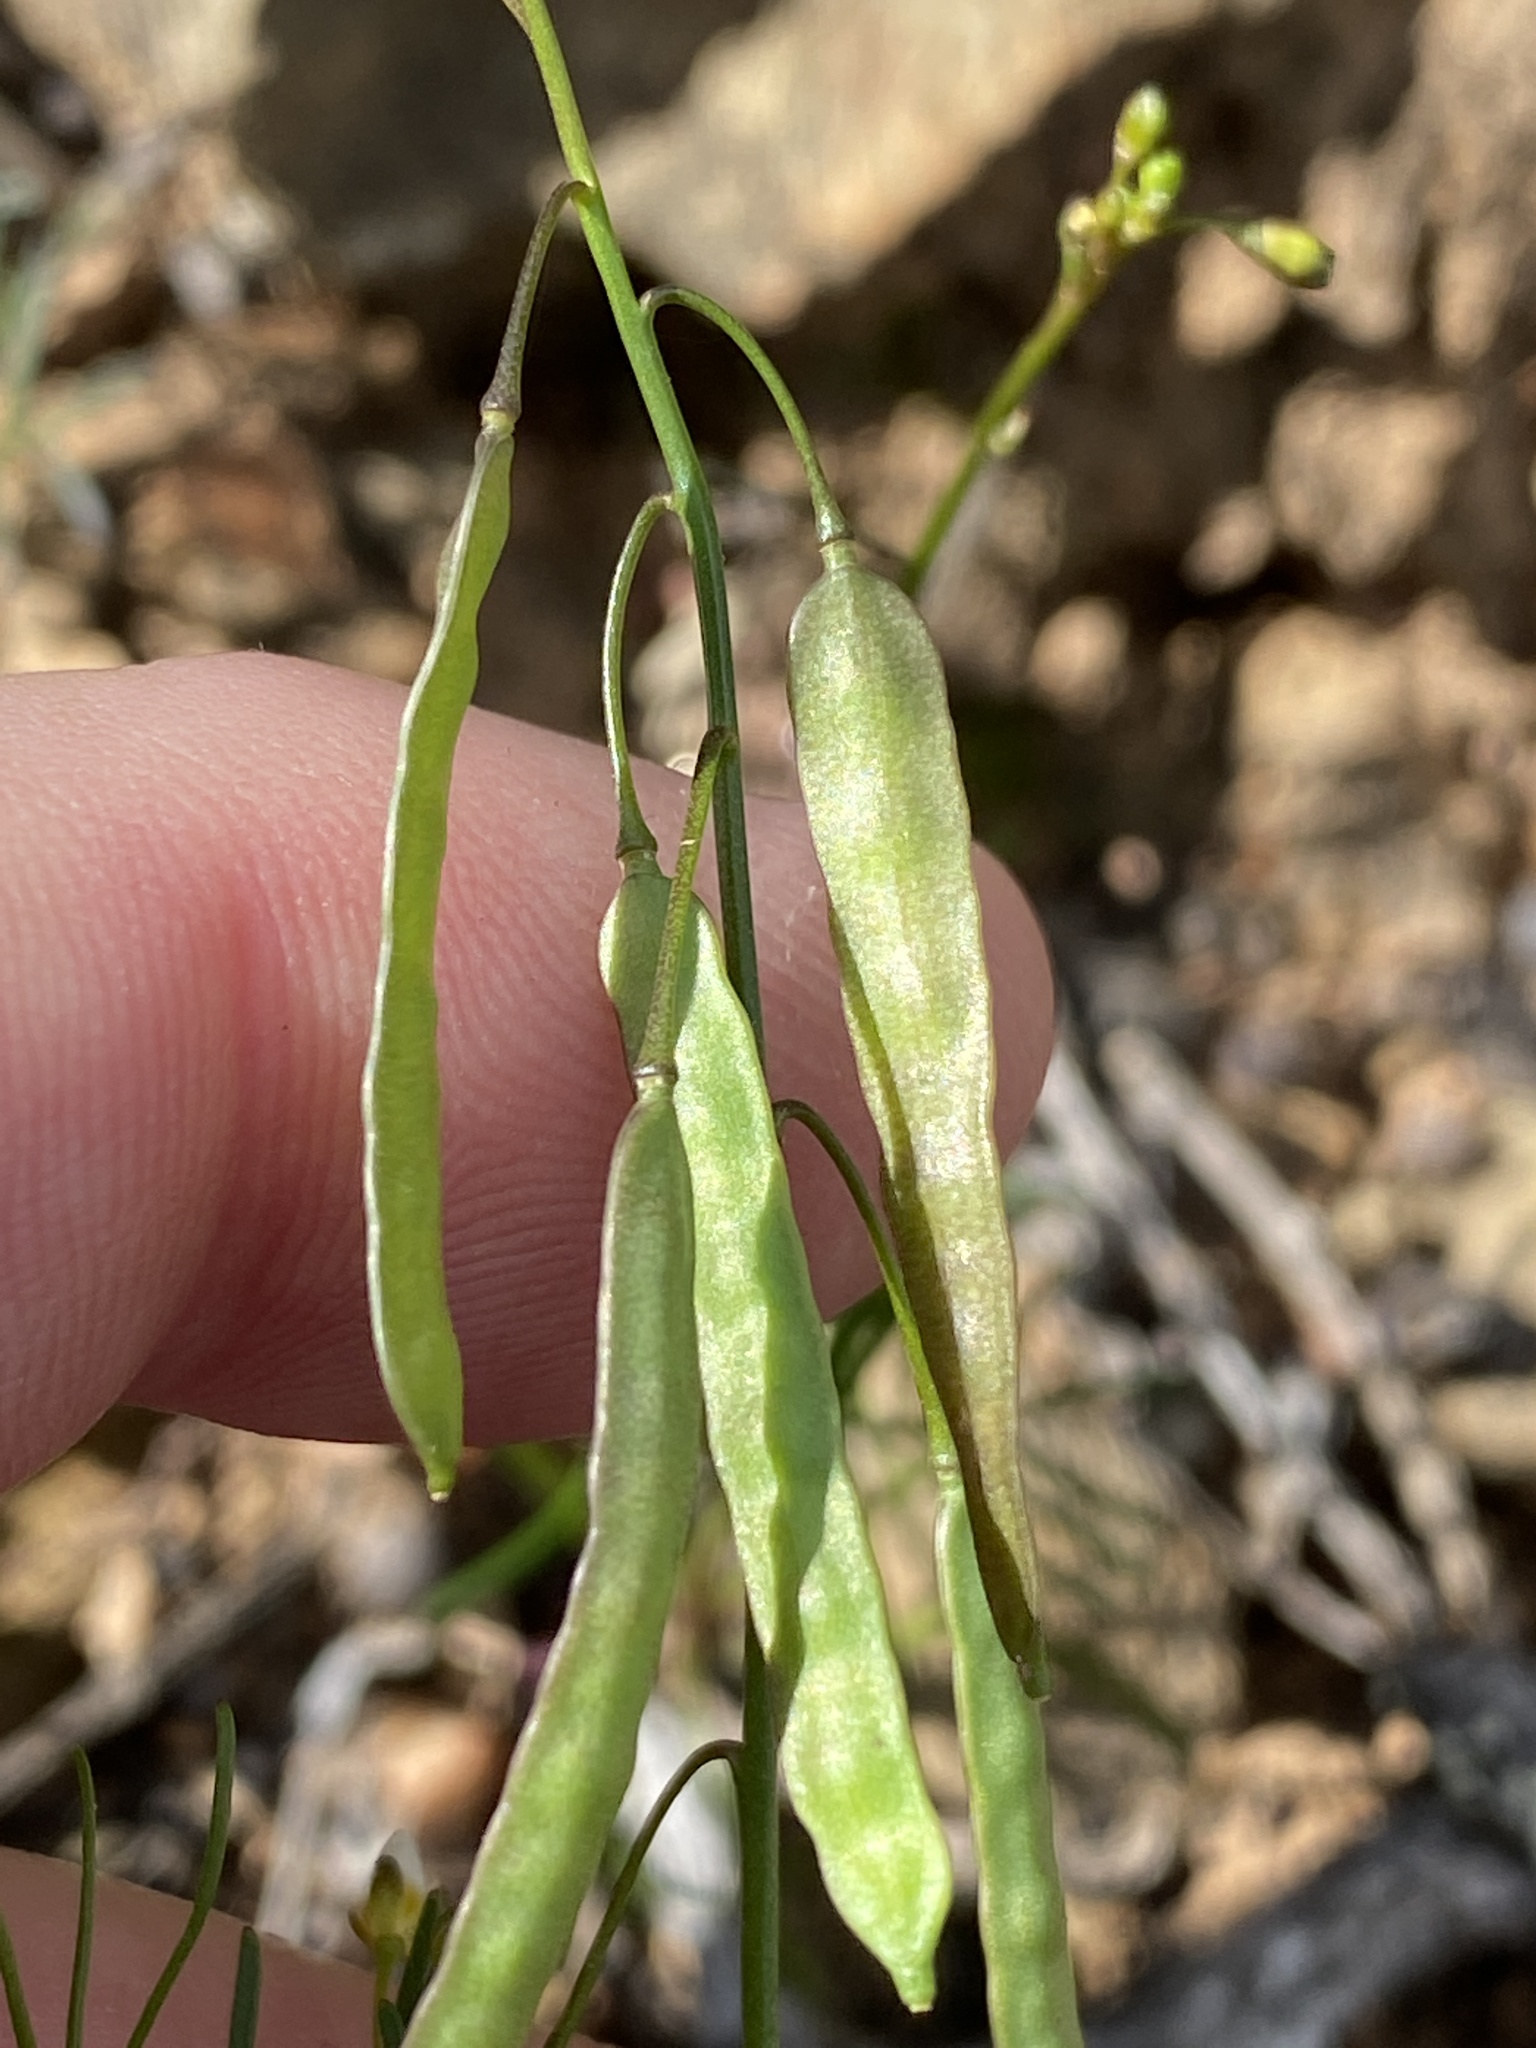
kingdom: Plantae
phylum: Tracheophyta
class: Magnoliopsida
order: Brassicales
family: Brassicaceae
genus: Heliophila
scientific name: Heliophila pendula
